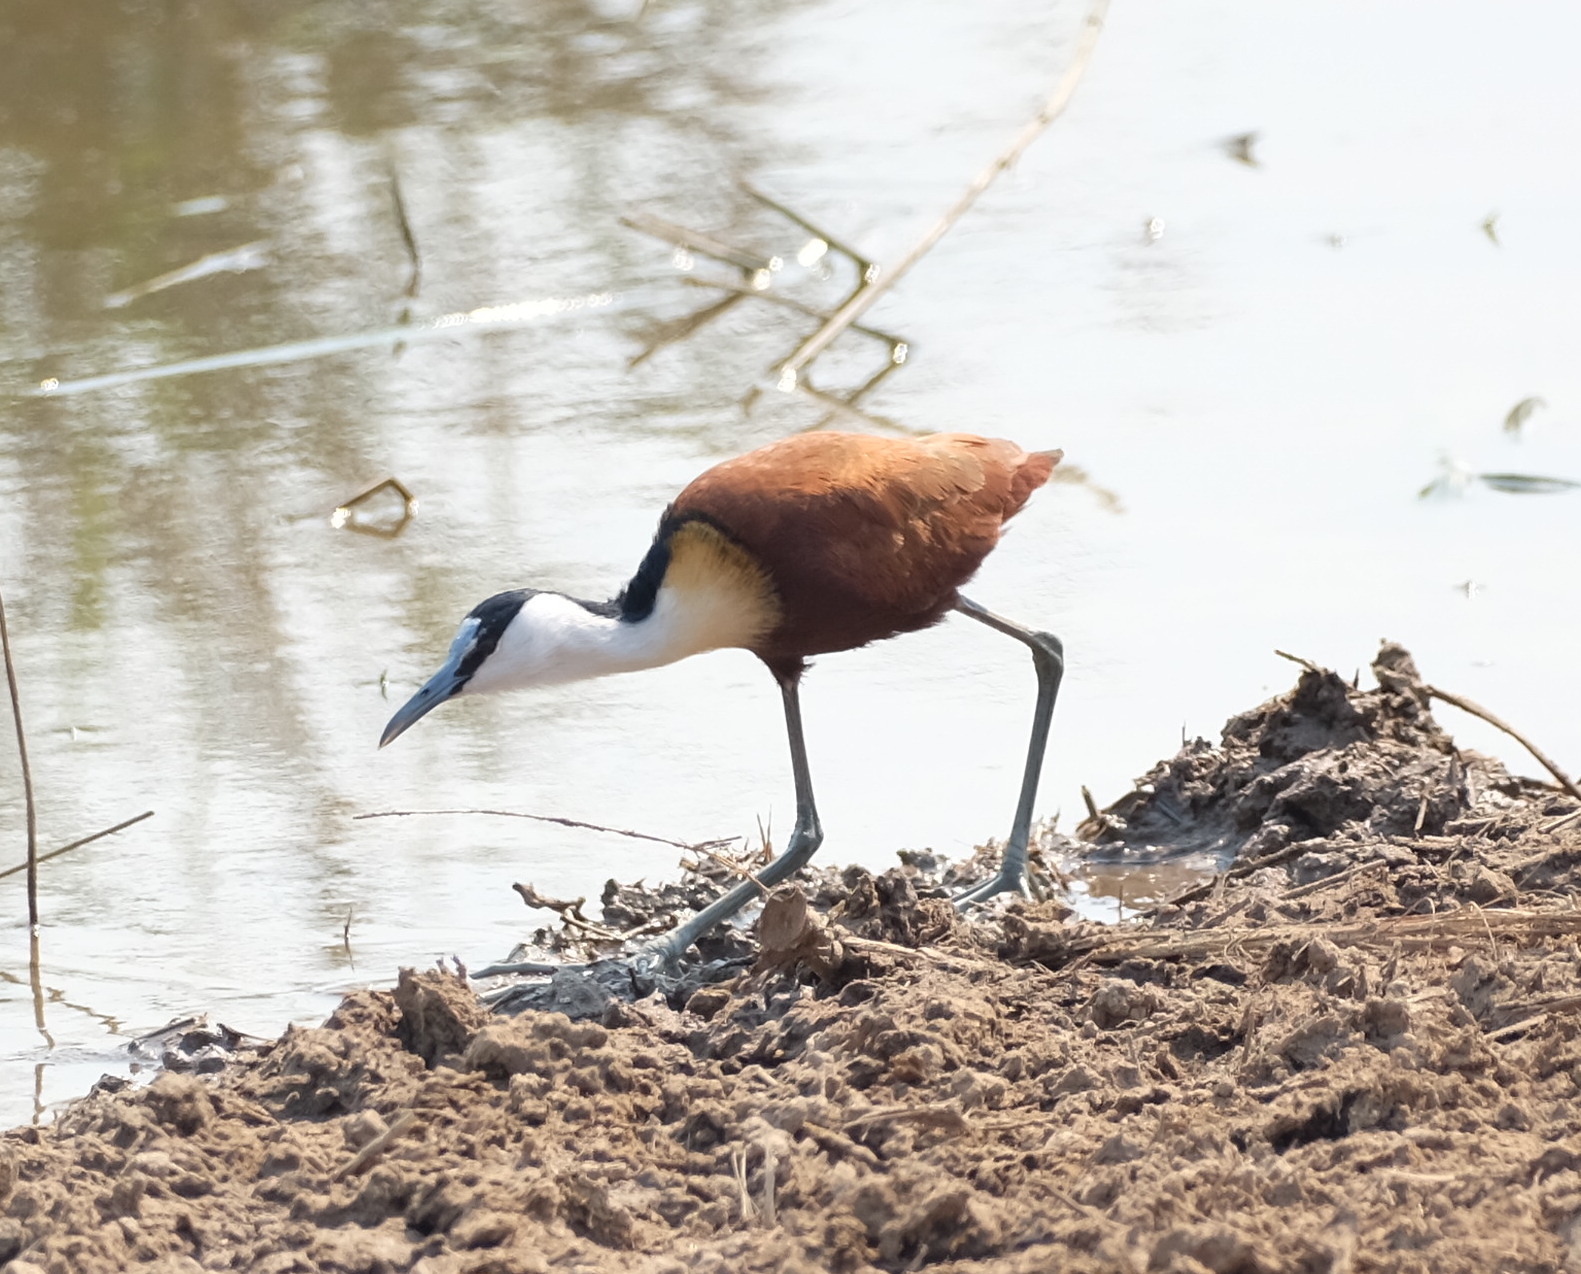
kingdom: Animalia
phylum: Chordata
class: Aves
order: Charadriiformes
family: Jacanidae
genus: Actophilornis
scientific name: Actophilornis africanus
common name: African jacana
